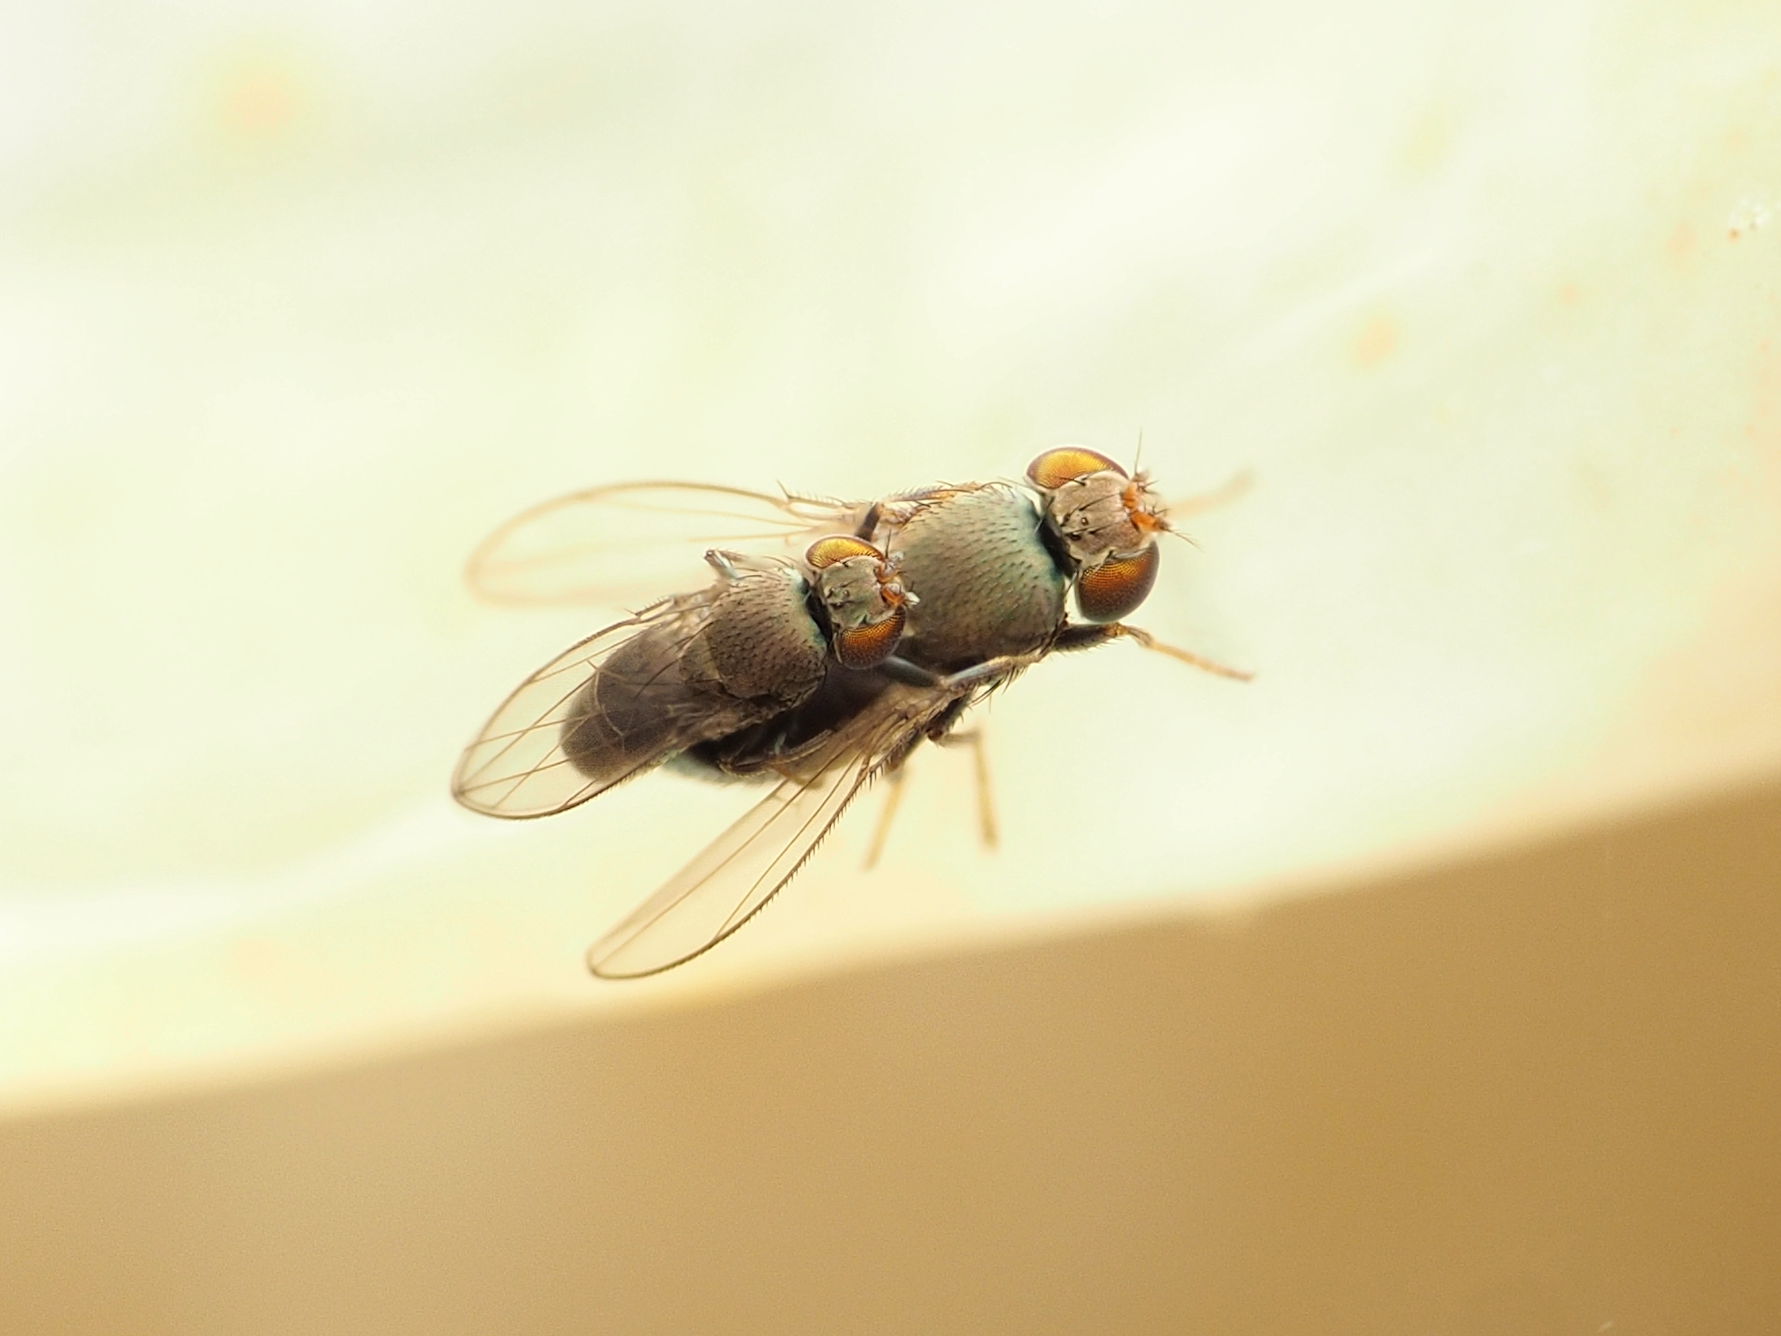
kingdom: Animalia
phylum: Arthropoda
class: Insecta
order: Diptera
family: Ephydridae
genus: Aquachasma
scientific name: Aquachasma leucoproctum
